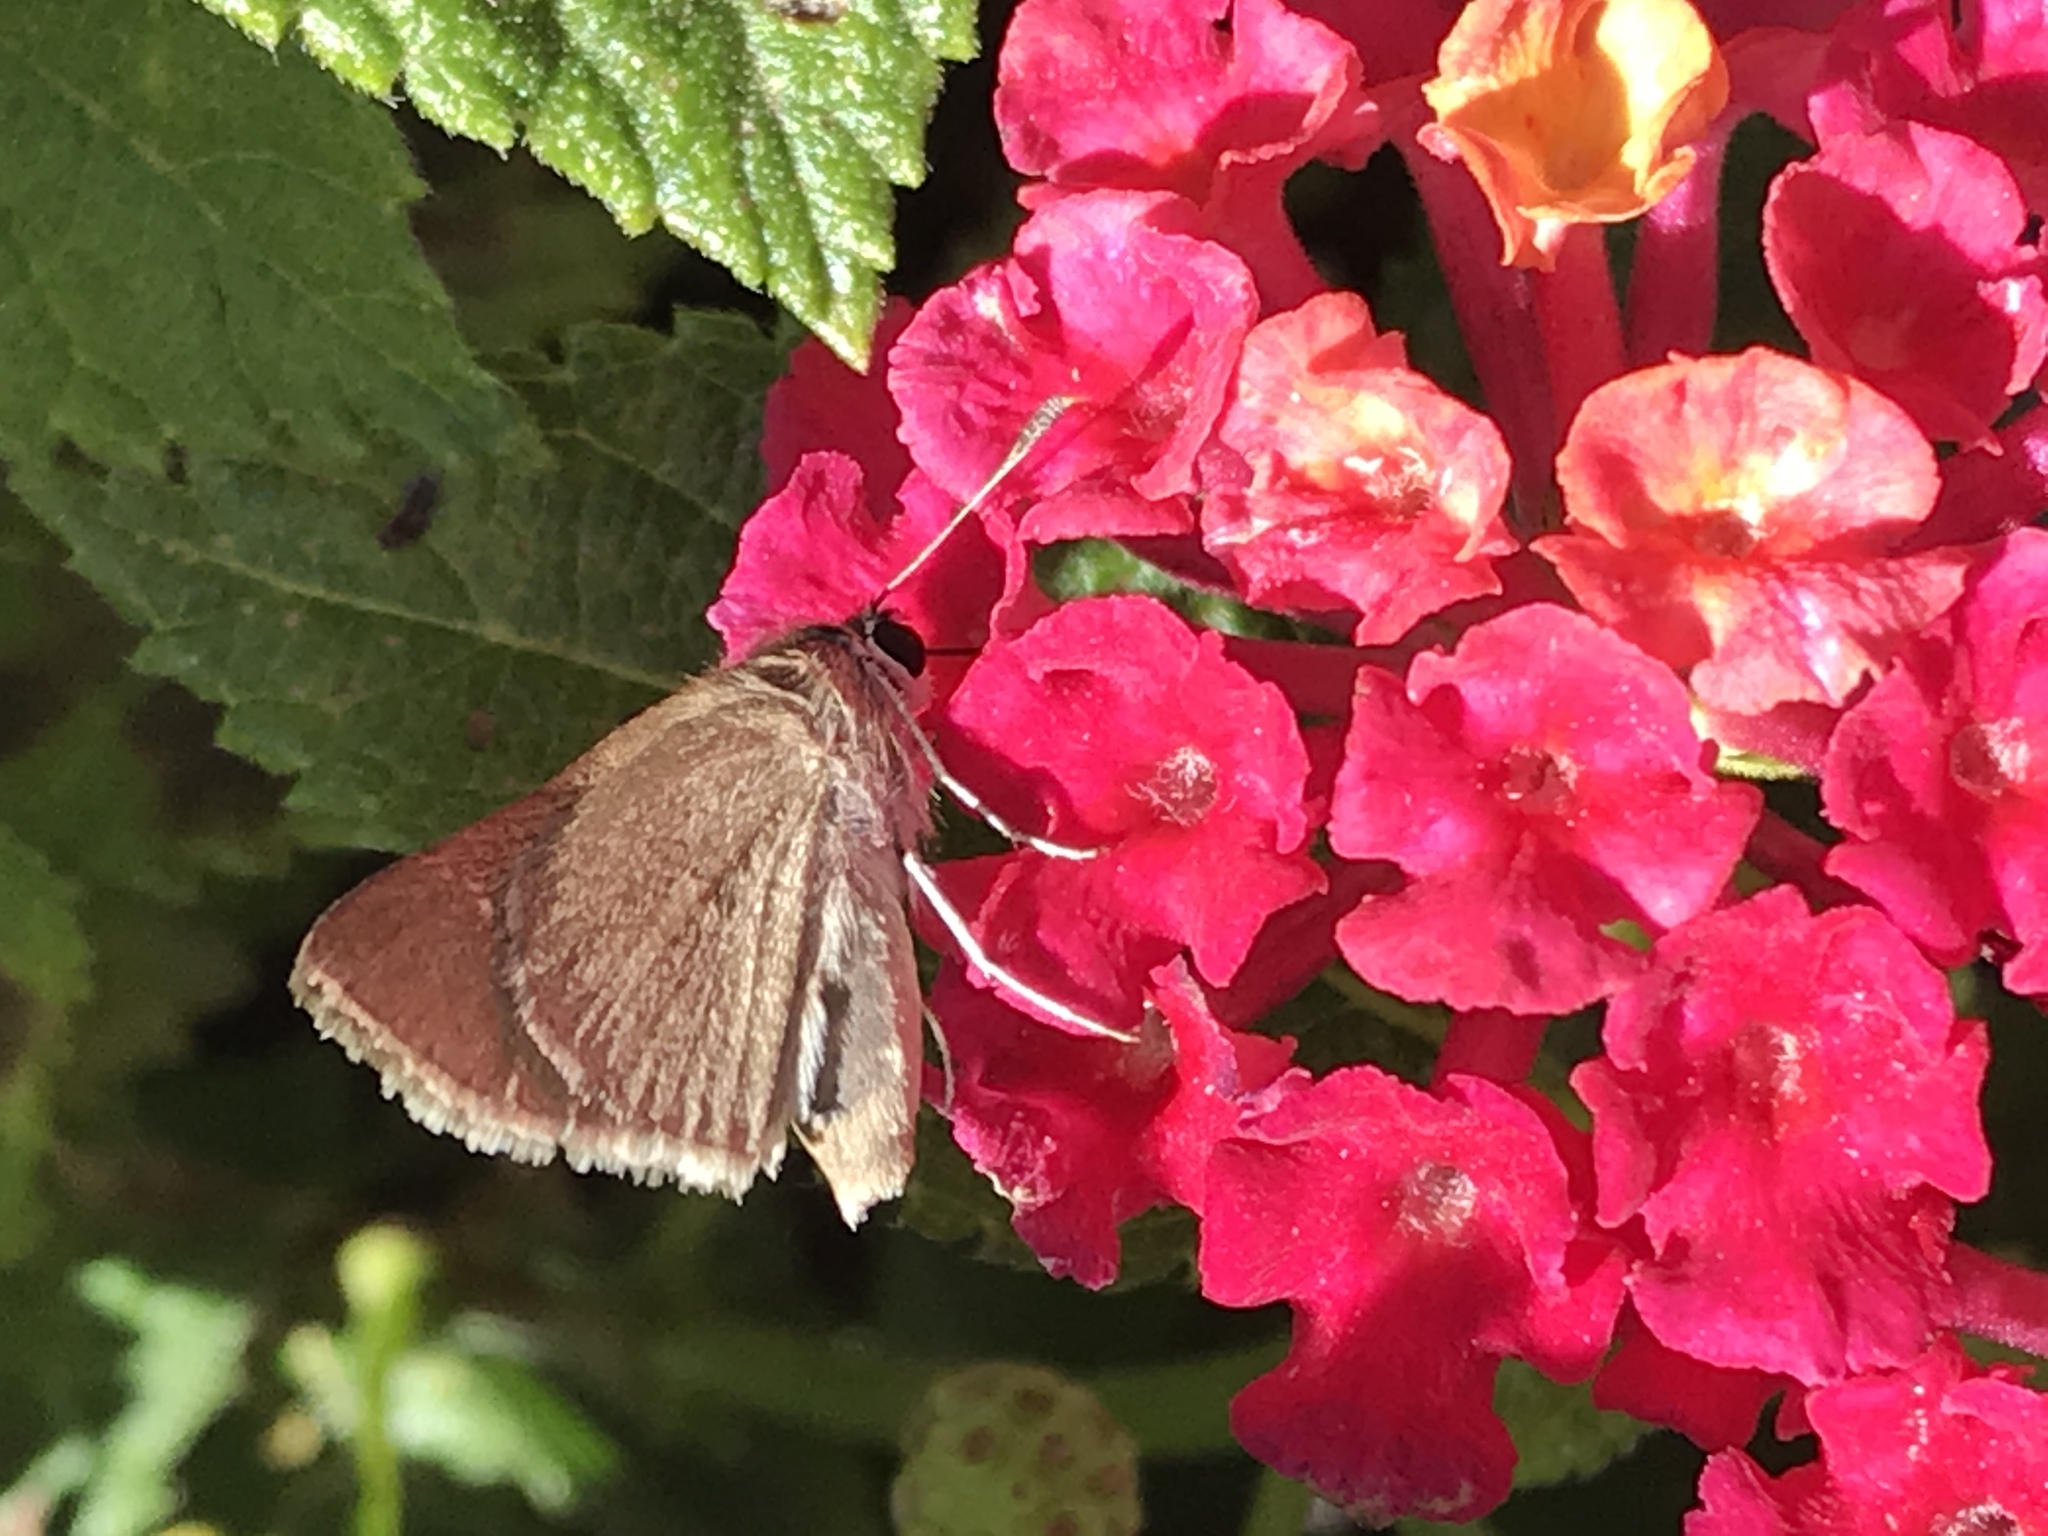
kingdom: Animalia
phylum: Arthropoda
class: Insecta
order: Lepidoptera
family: Hesperiidae
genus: Lerodea
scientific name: Lerodea eufala
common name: Eufala skipper
